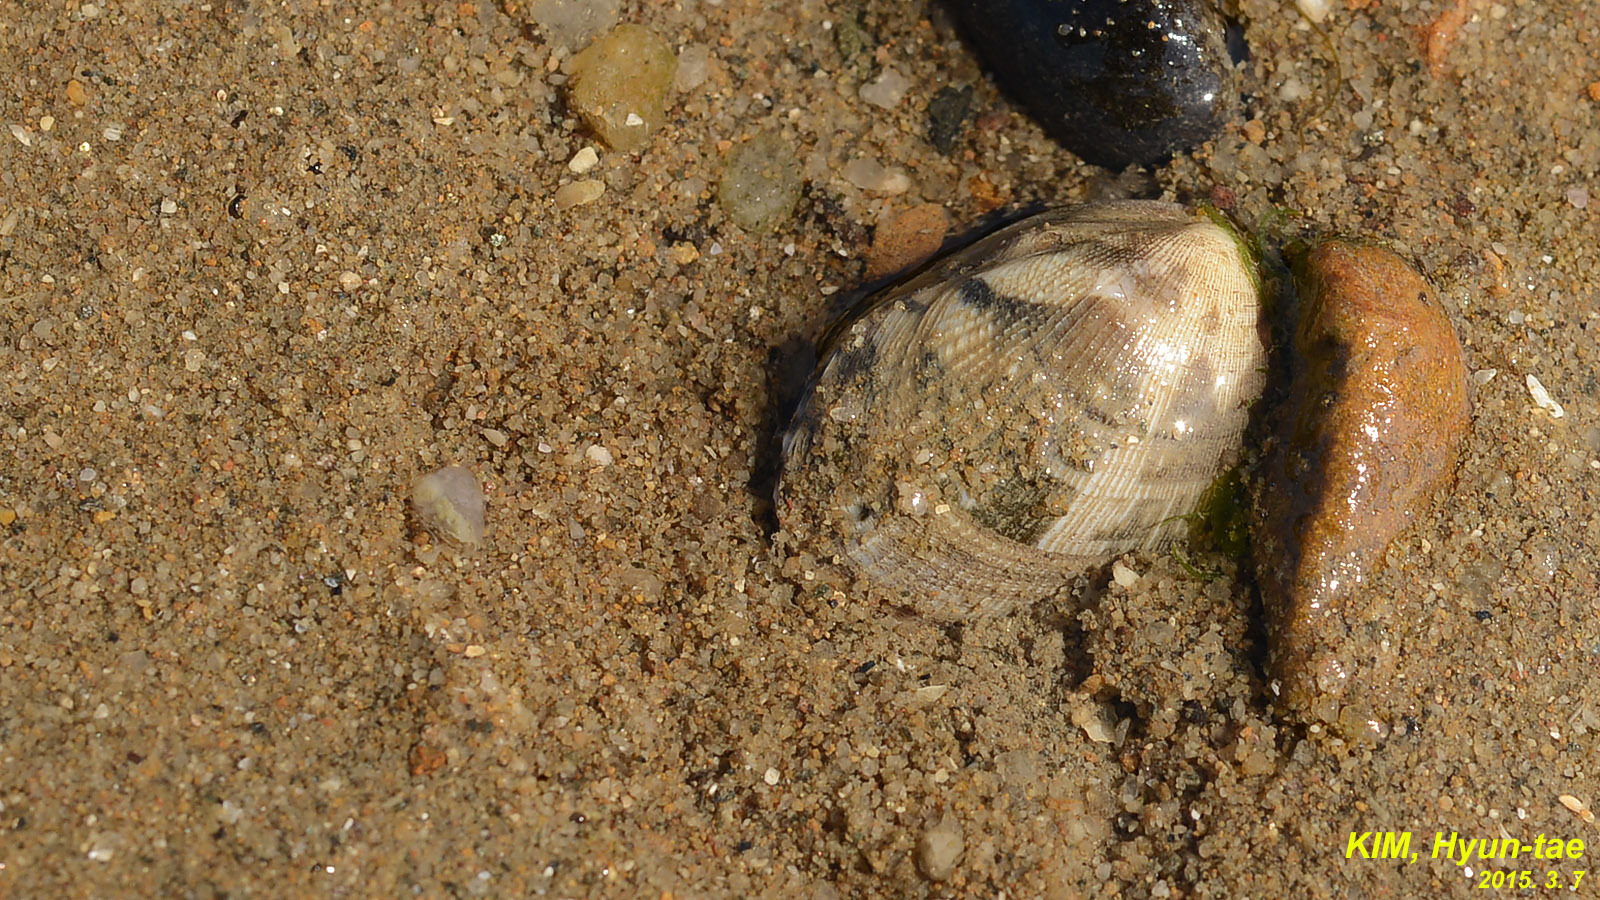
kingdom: Animalia
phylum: Mollusca
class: Bivalvia
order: Venerida
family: Veneridae
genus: Ruditapes
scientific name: Ruditapes philippinarum
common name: Manila clam
